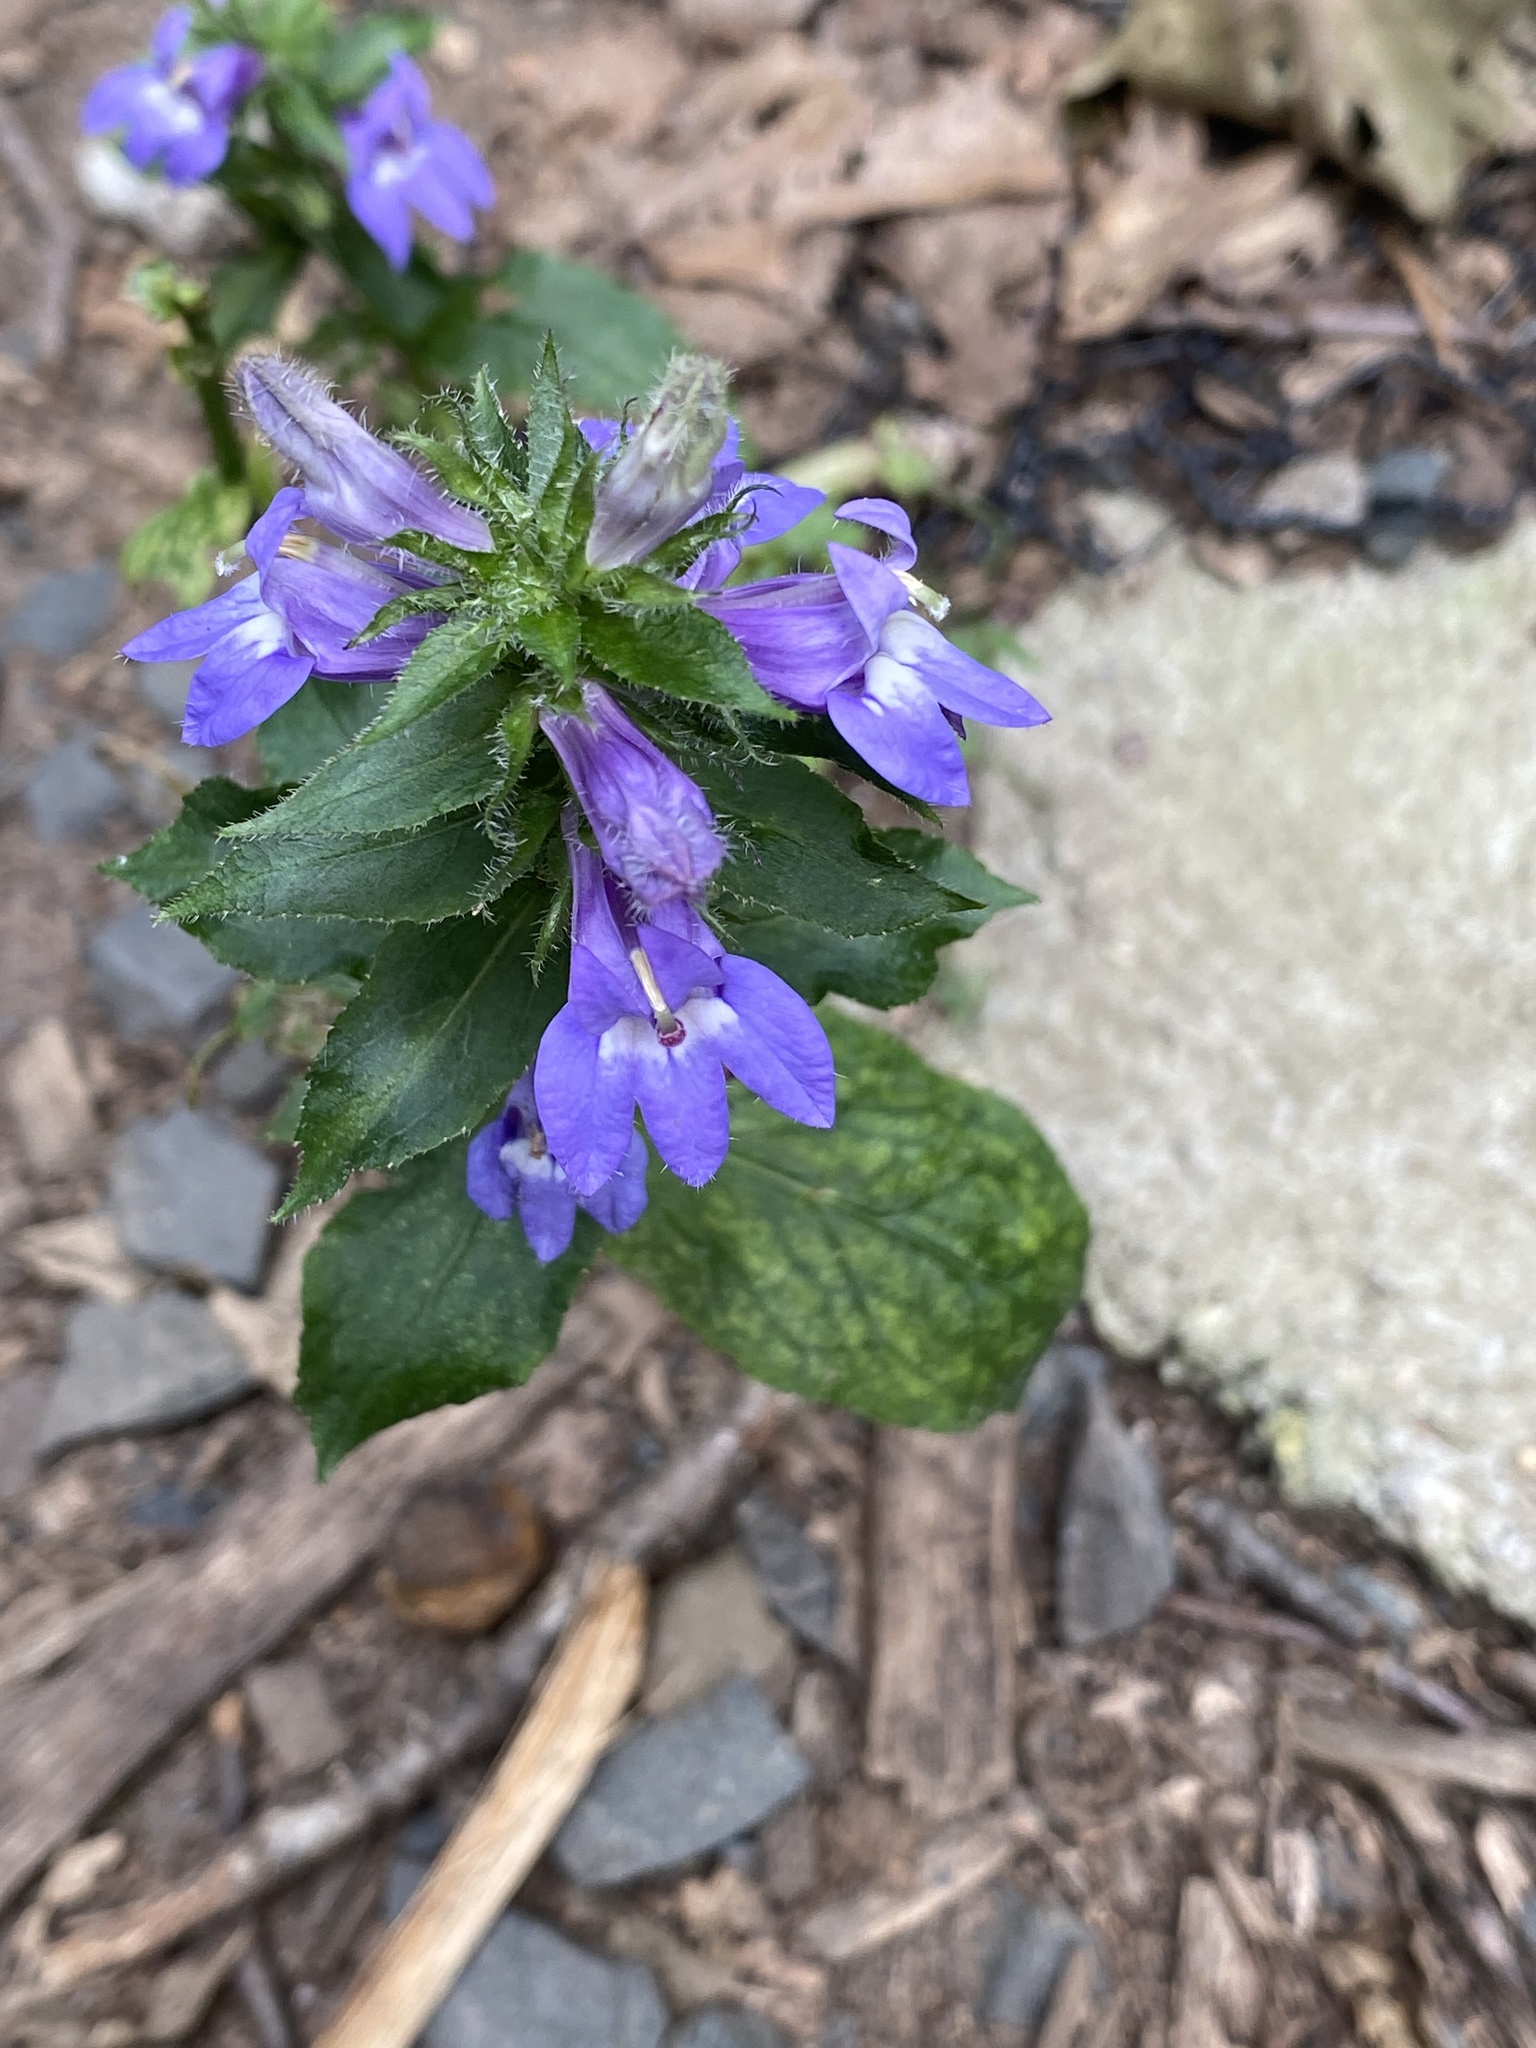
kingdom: Plantae
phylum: Tracheophyta
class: Magnoliopsida
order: Asterales
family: Campanulaceae
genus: Lobelia
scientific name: Lobelia siphilitica
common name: Great lobelia
